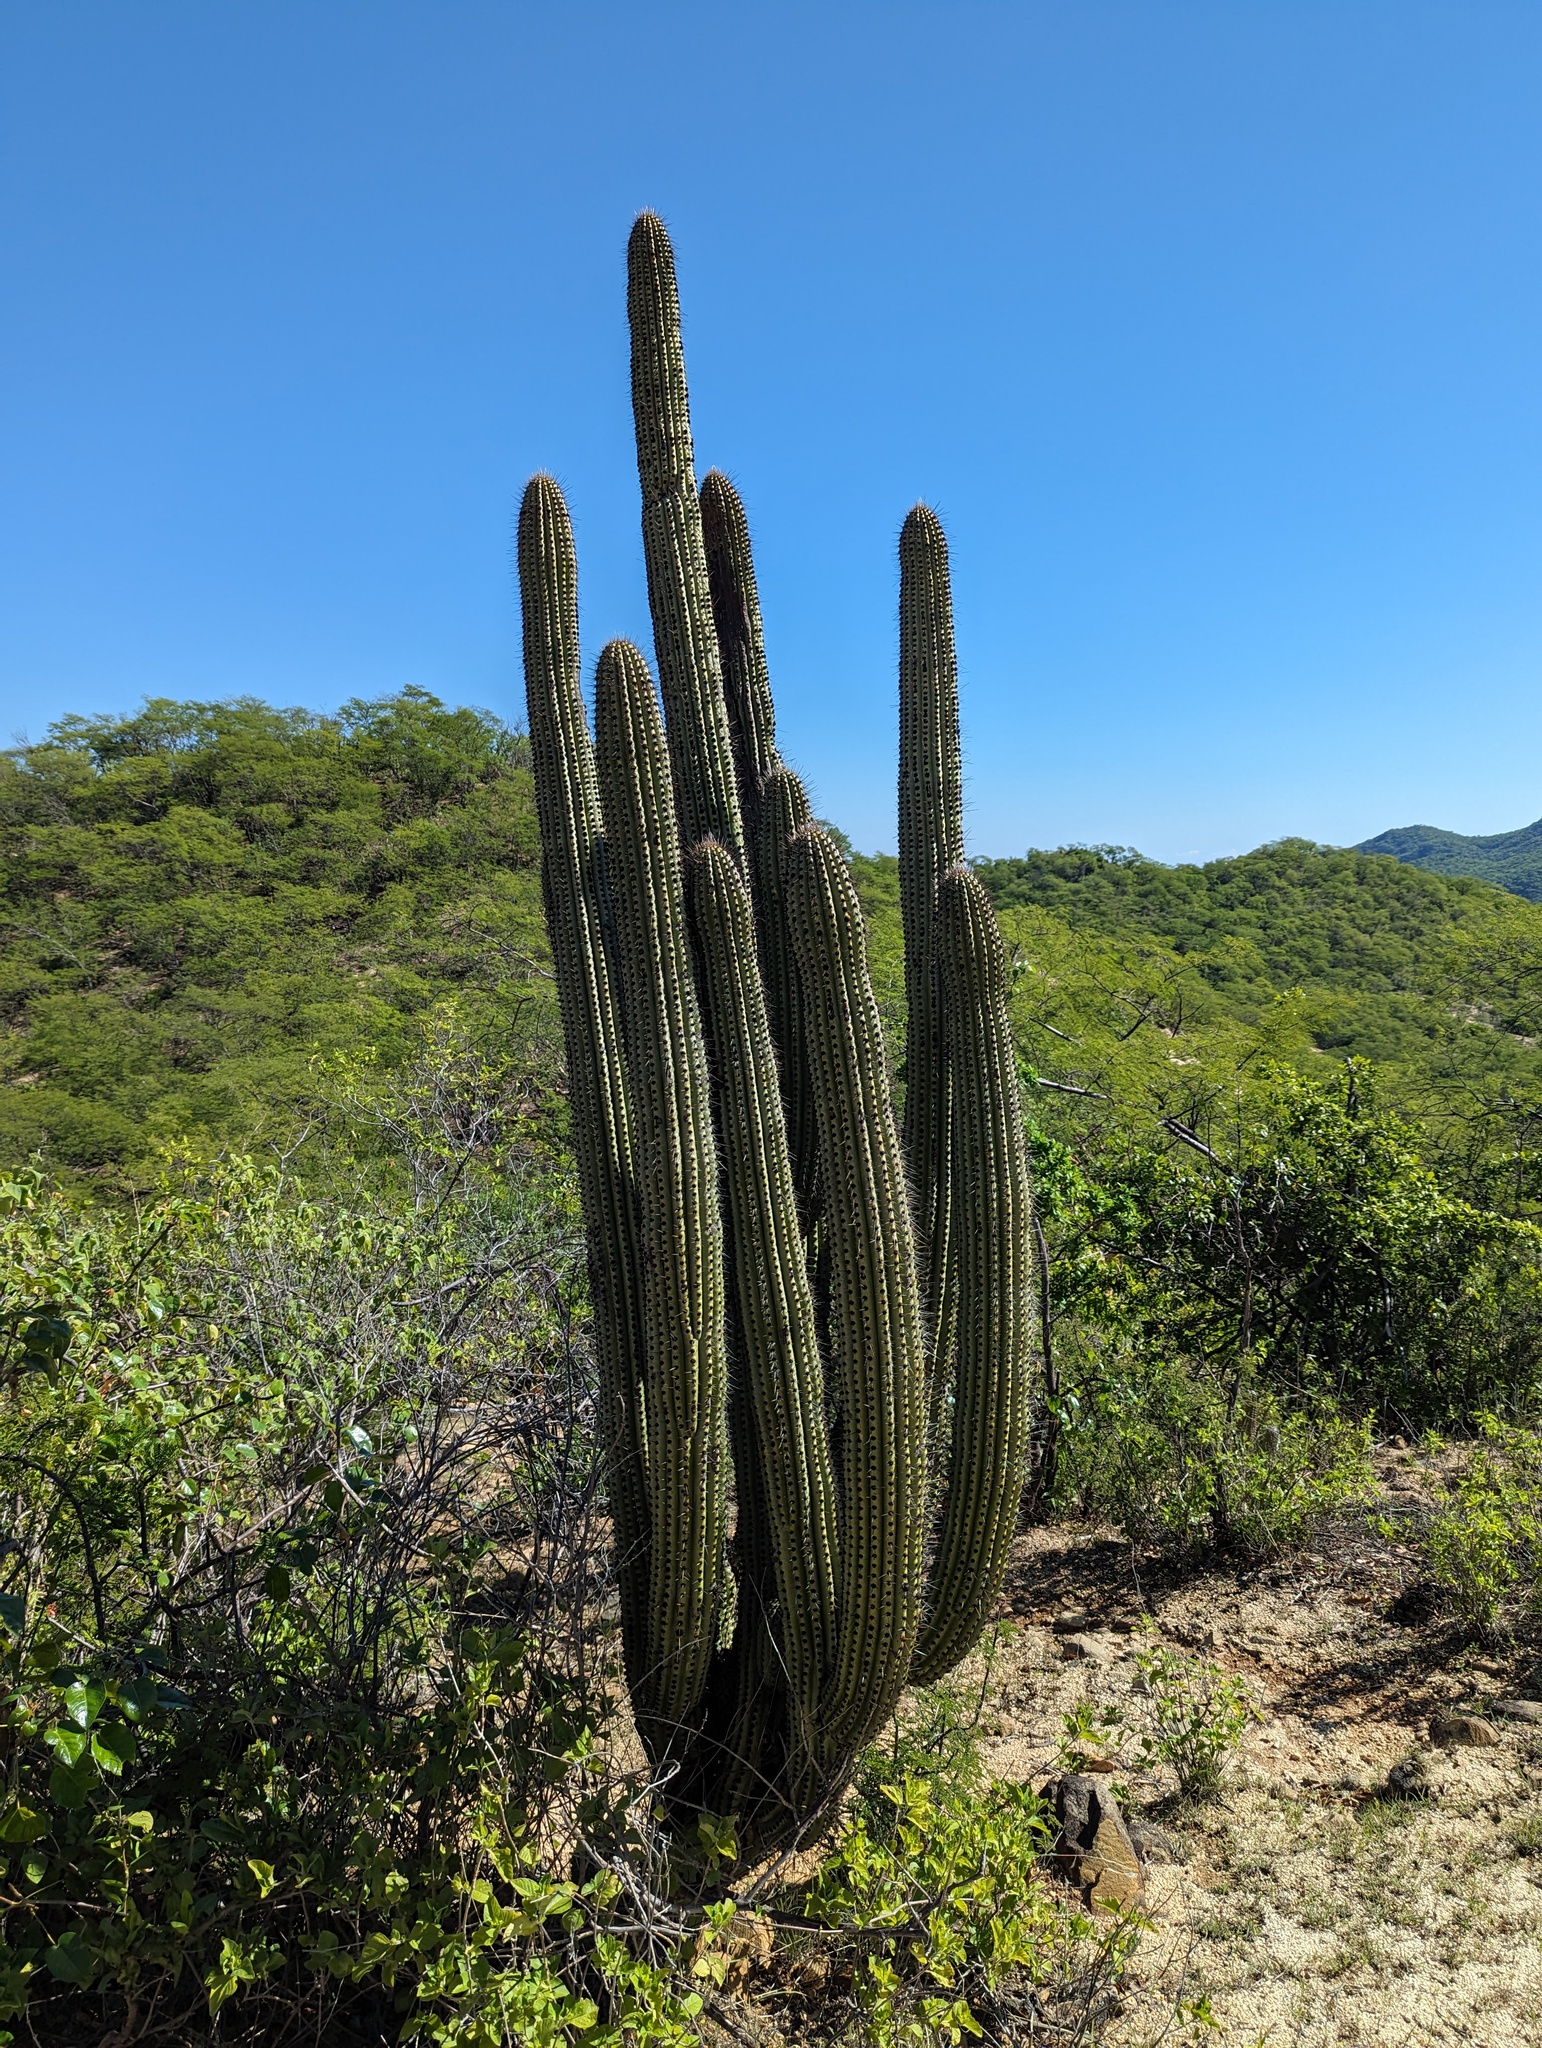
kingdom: Plantae
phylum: Tracheophyta
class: Magnoliopsida
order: Caryophyllales
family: Cactaceae
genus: Stenocereus
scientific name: Stenocereus thurberi
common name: Organ pipe cactus
